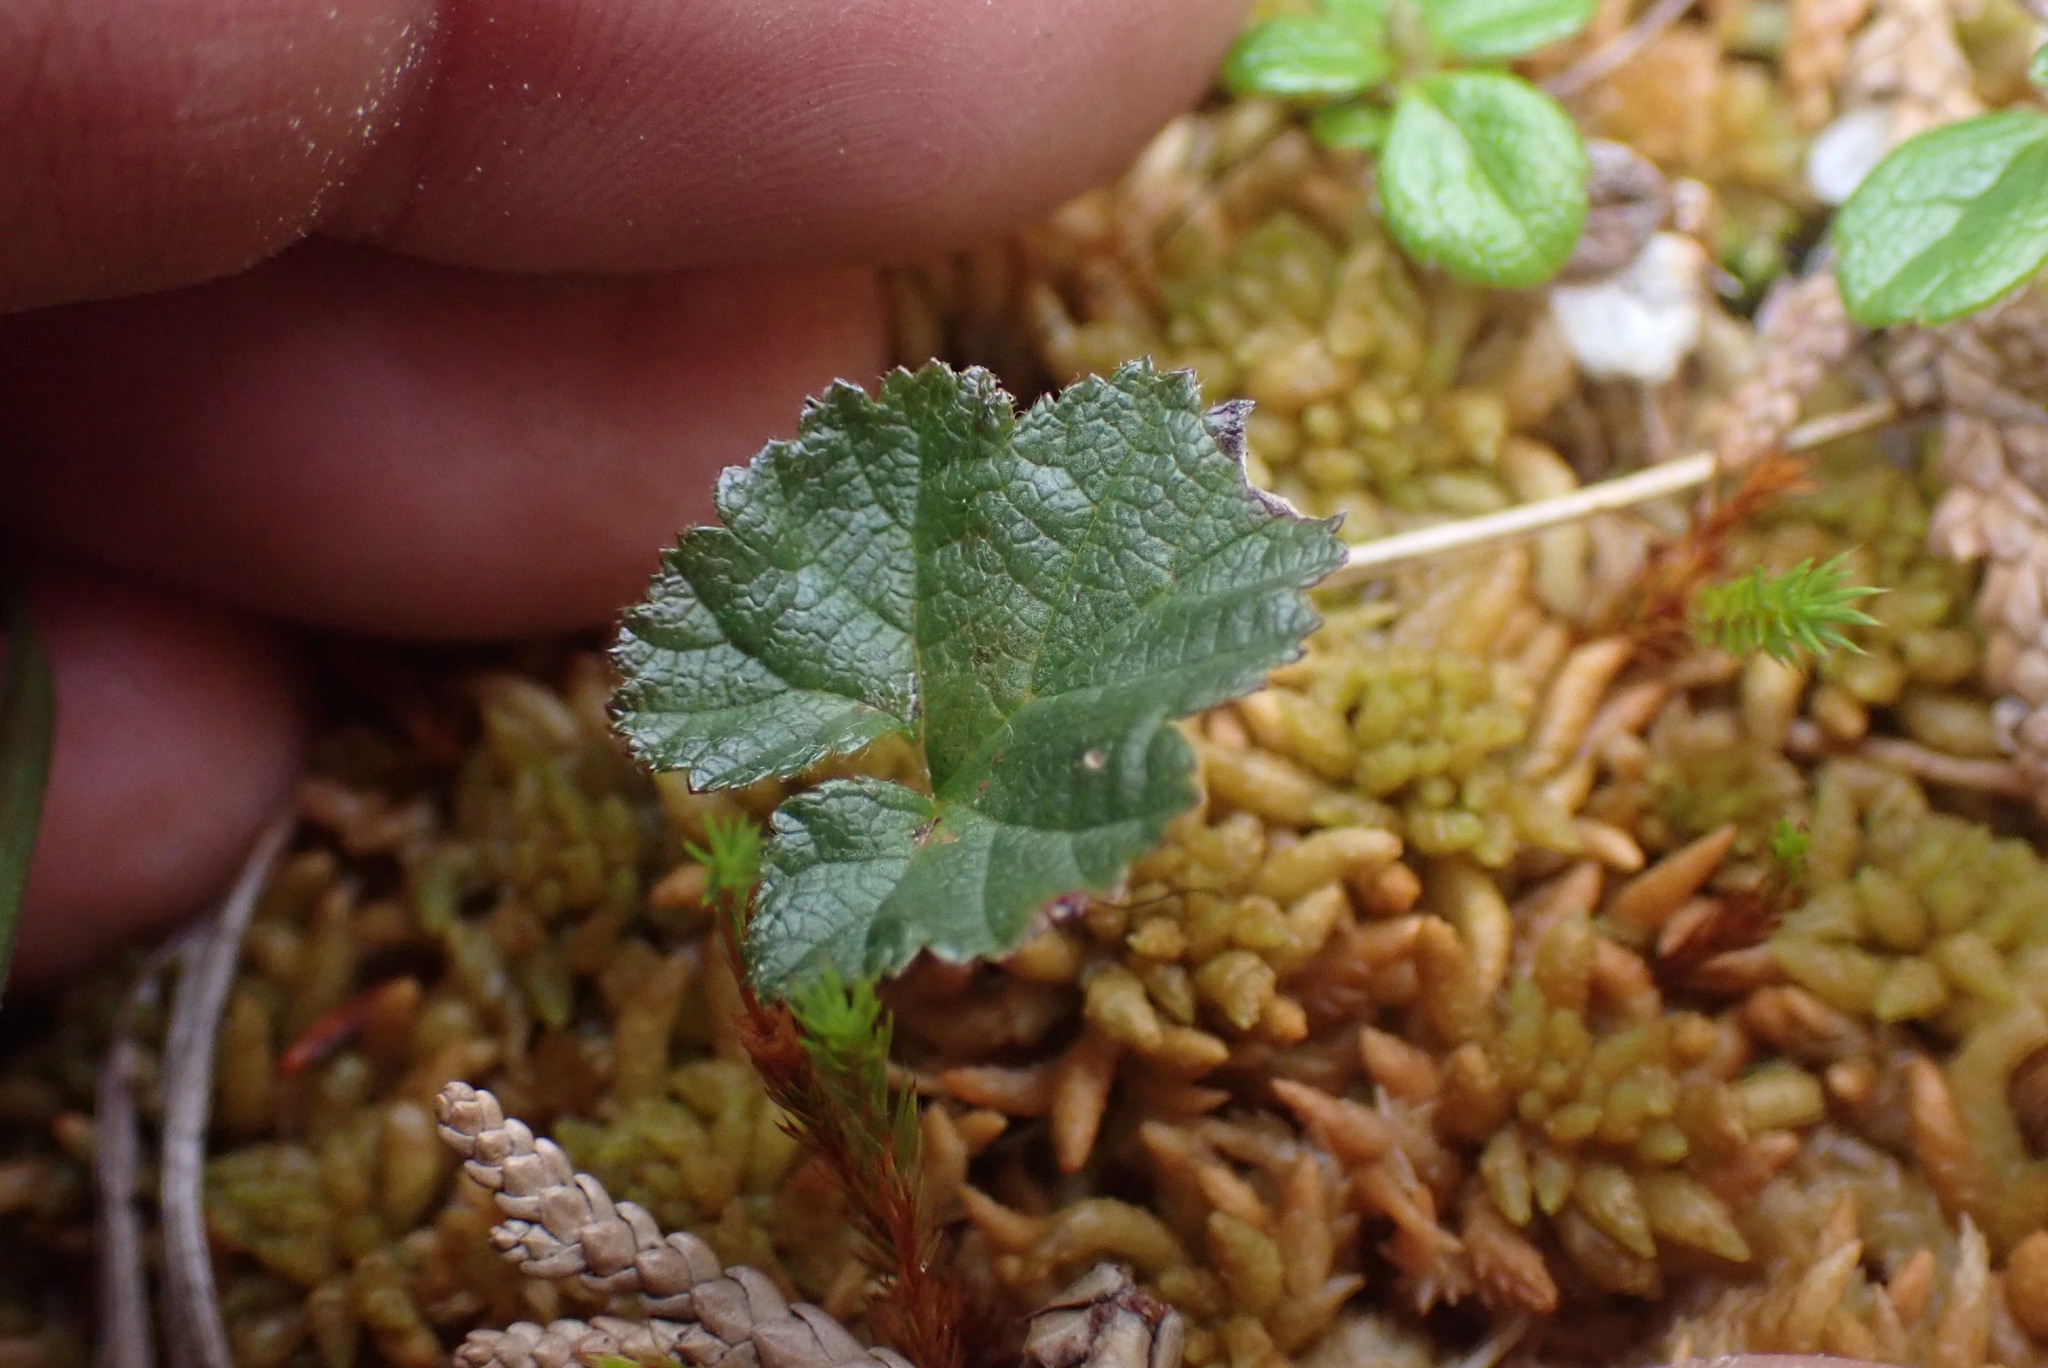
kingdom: Plantae
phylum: Tracheophyta
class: Magnoliopsida
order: Rosales
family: Rosaceae
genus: Rubus
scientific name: Rubus chamaemorus
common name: Cloudberry
